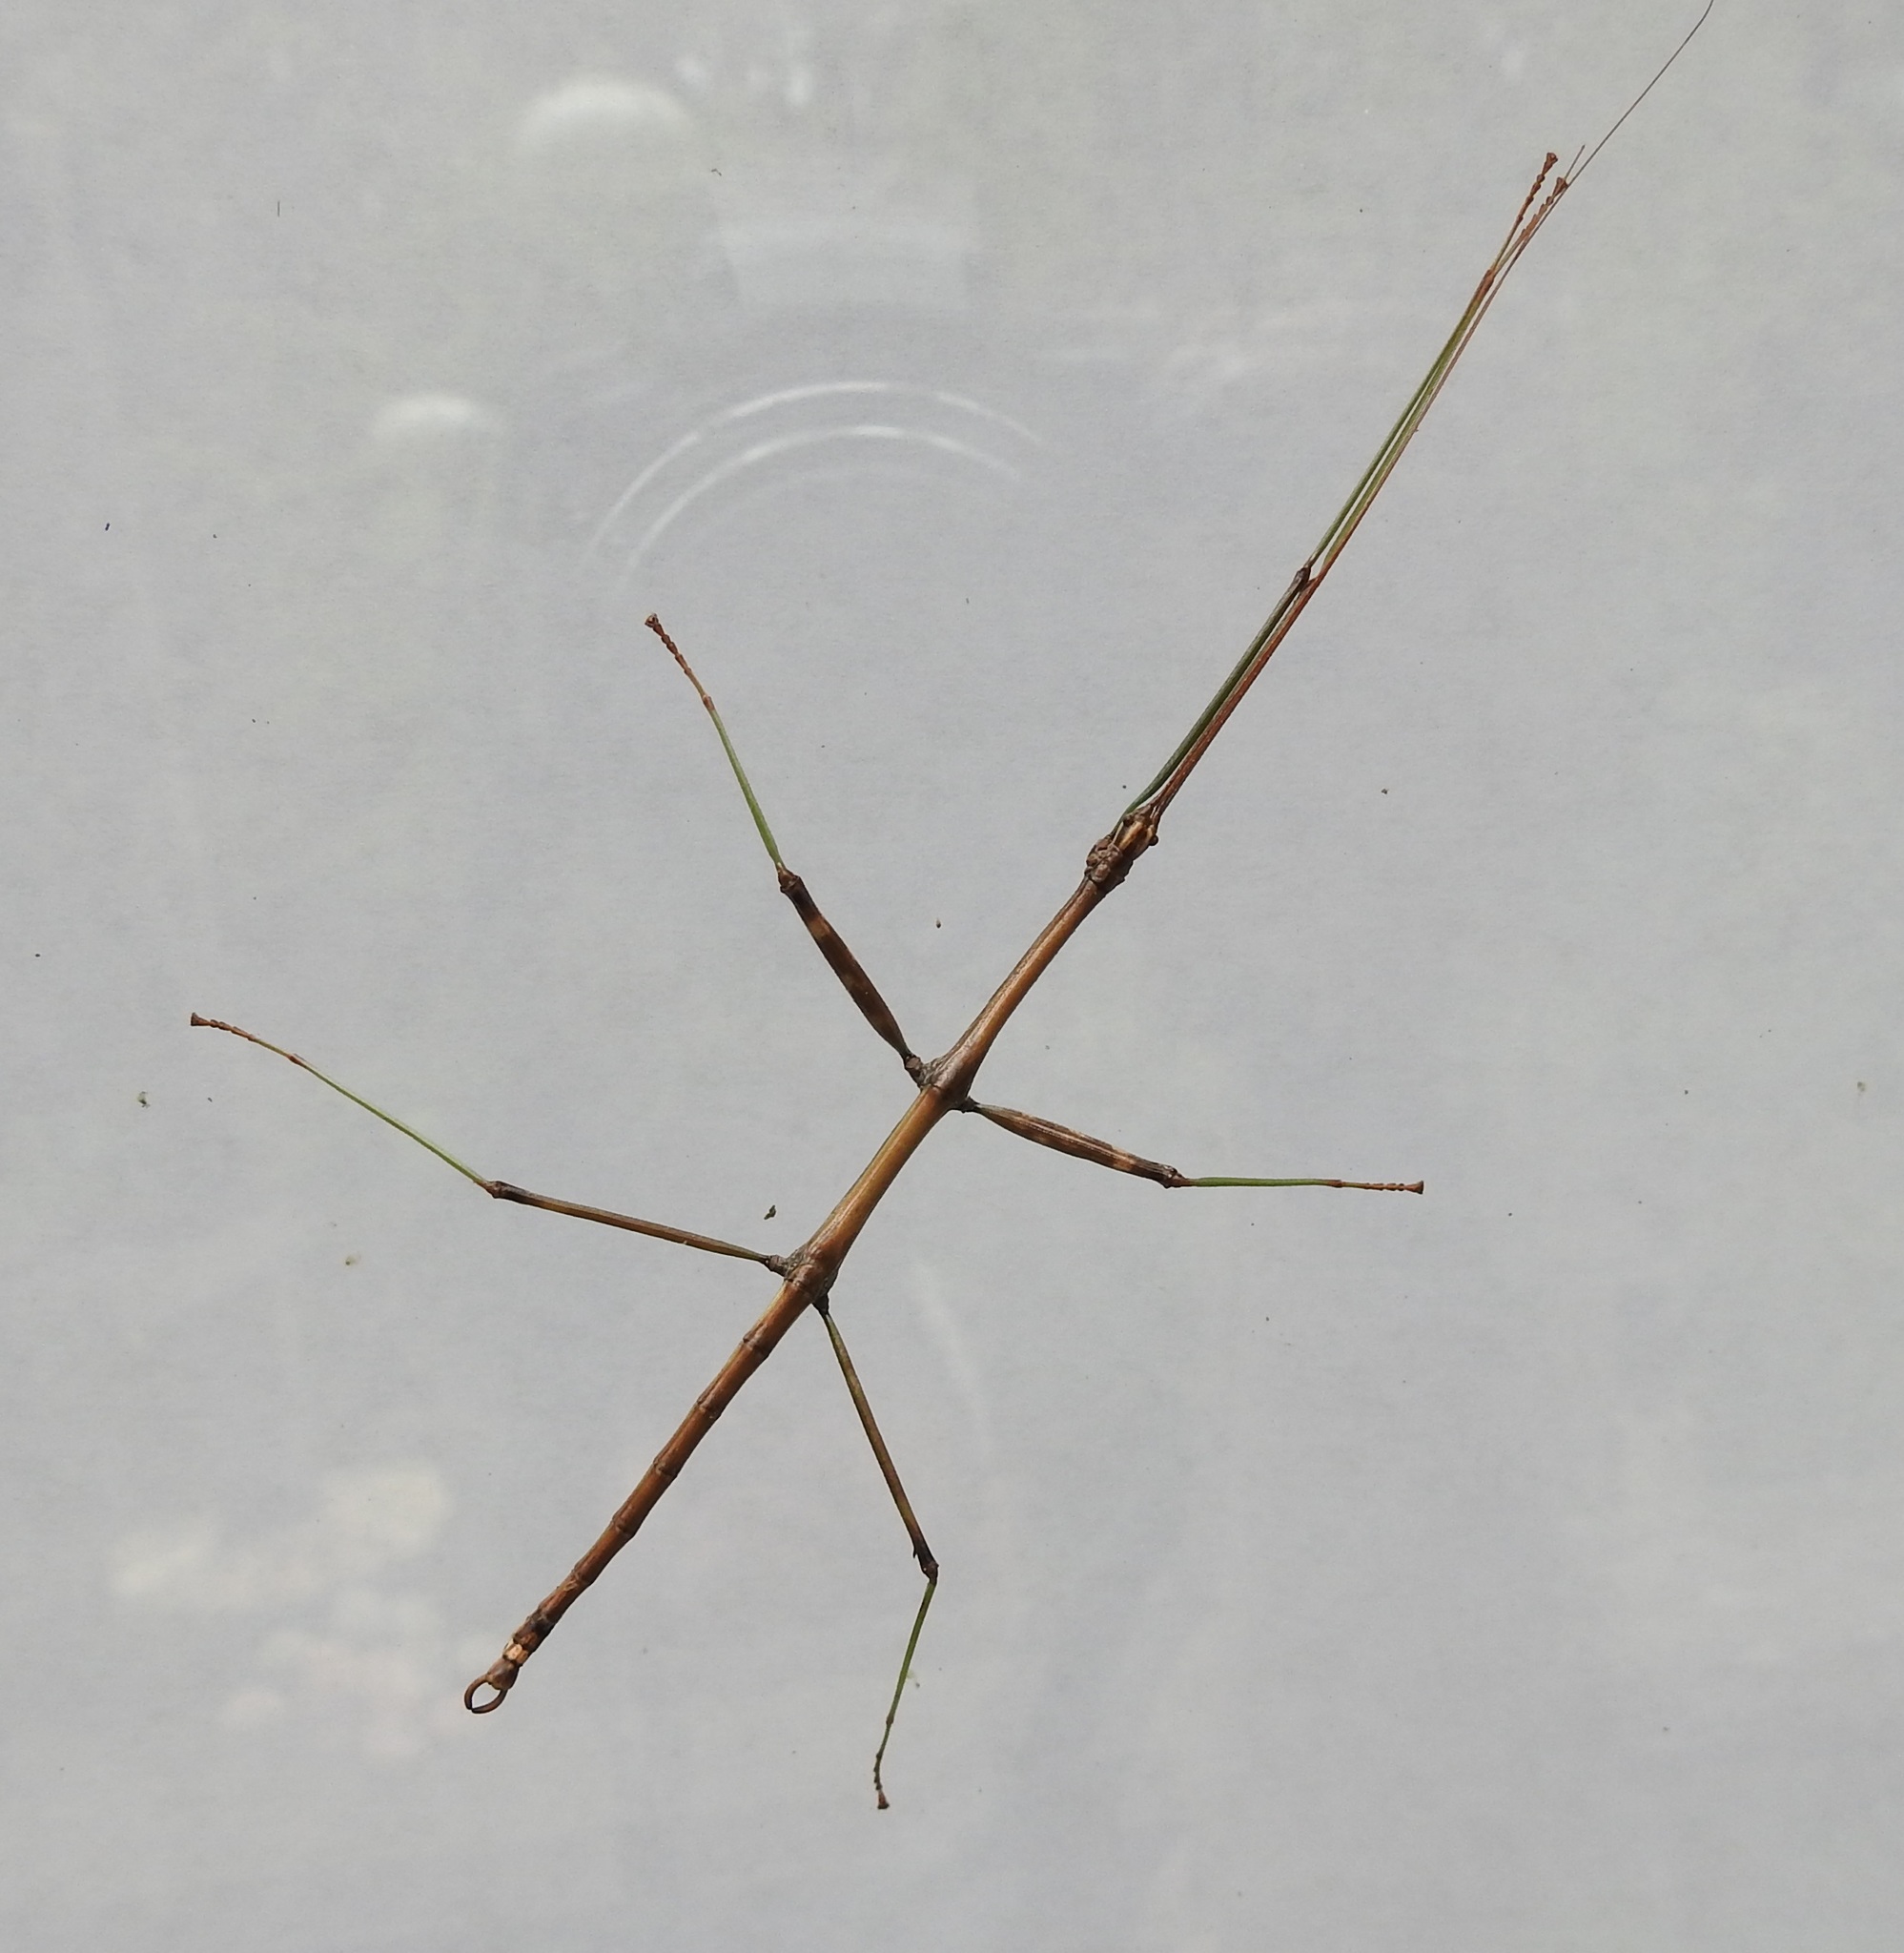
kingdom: Animalia
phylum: Arthropoda
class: Insecta
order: Phasmida
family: Diapheromeridae
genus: Diapheromera
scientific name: Diapheromera femorata
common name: Common american walkingstick
